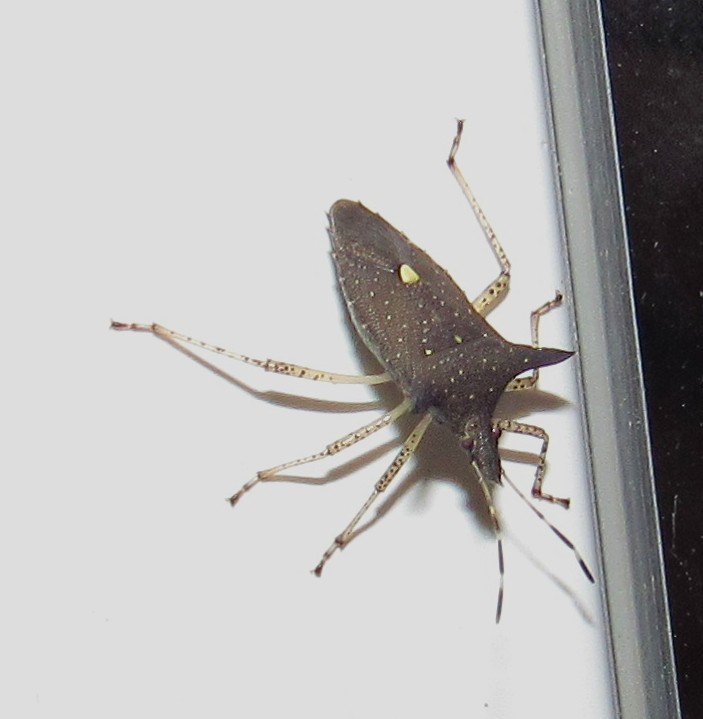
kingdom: Animalia
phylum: Arthropoda
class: Insecta
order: Hemiptera
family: Pentatomidae
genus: Proxys
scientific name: Proxys albopunctulatus
